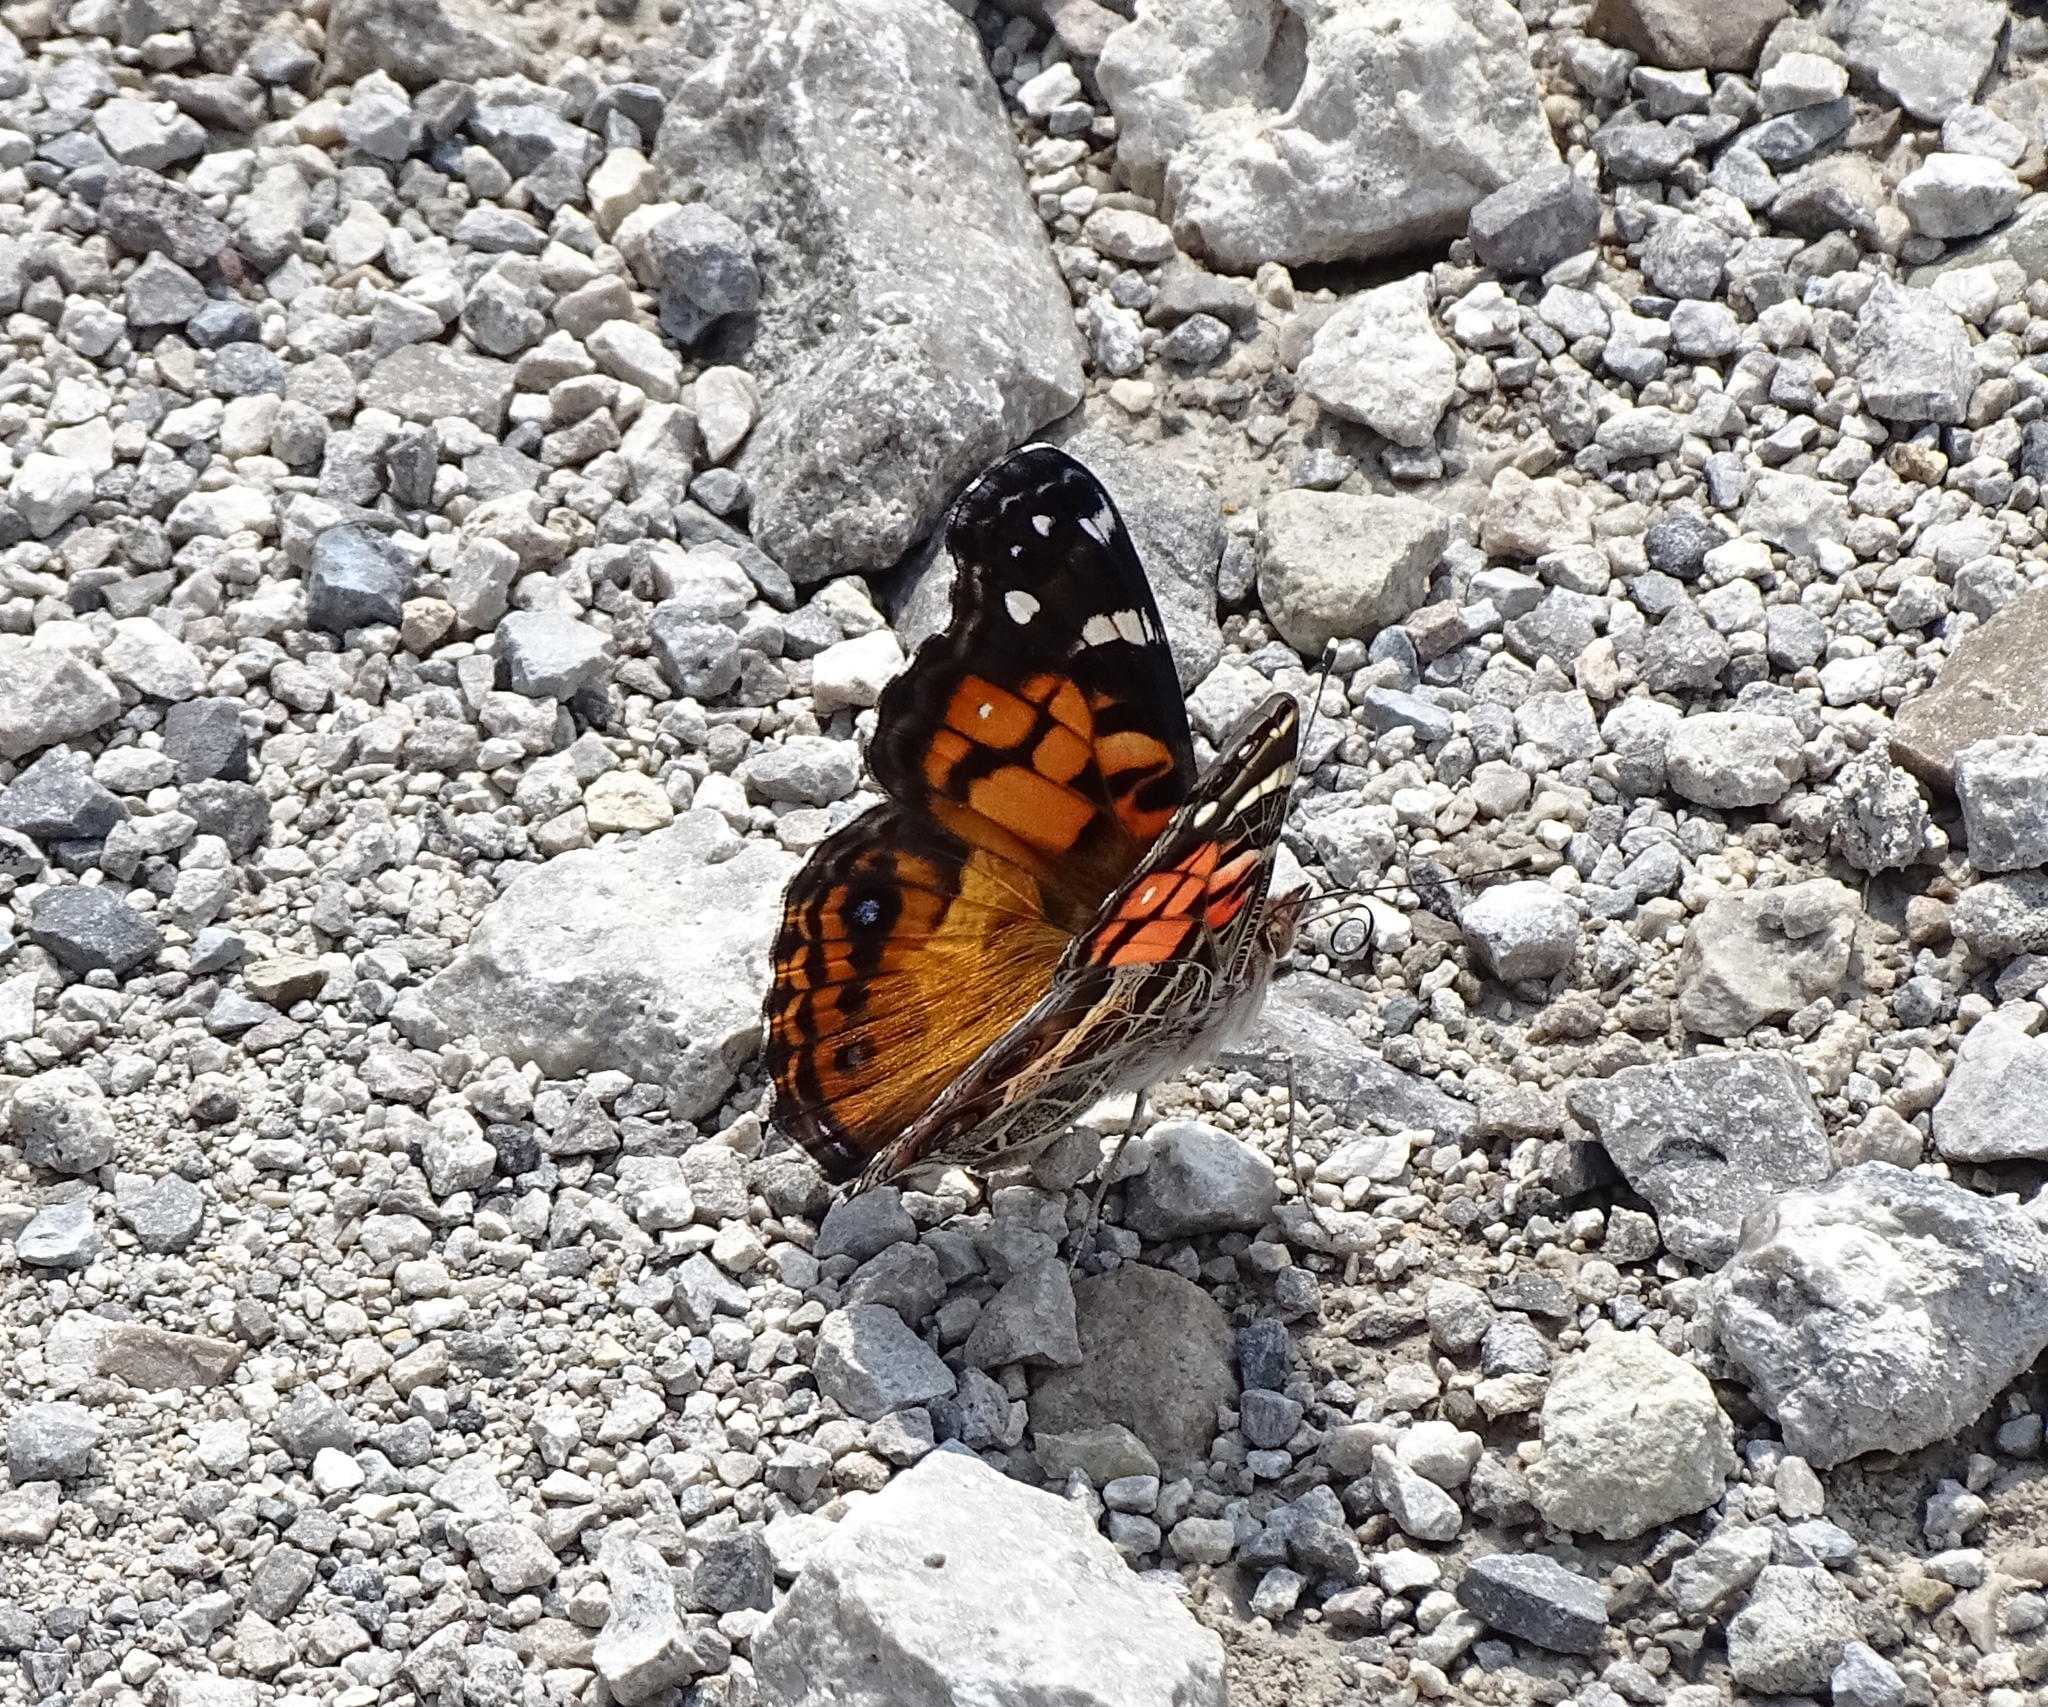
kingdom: Animalia
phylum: Arthropoda
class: Insecta
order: Lepidoptera
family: Nymphalidae
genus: Vanessa
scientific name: Vanessa virginiensis
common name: American lady
